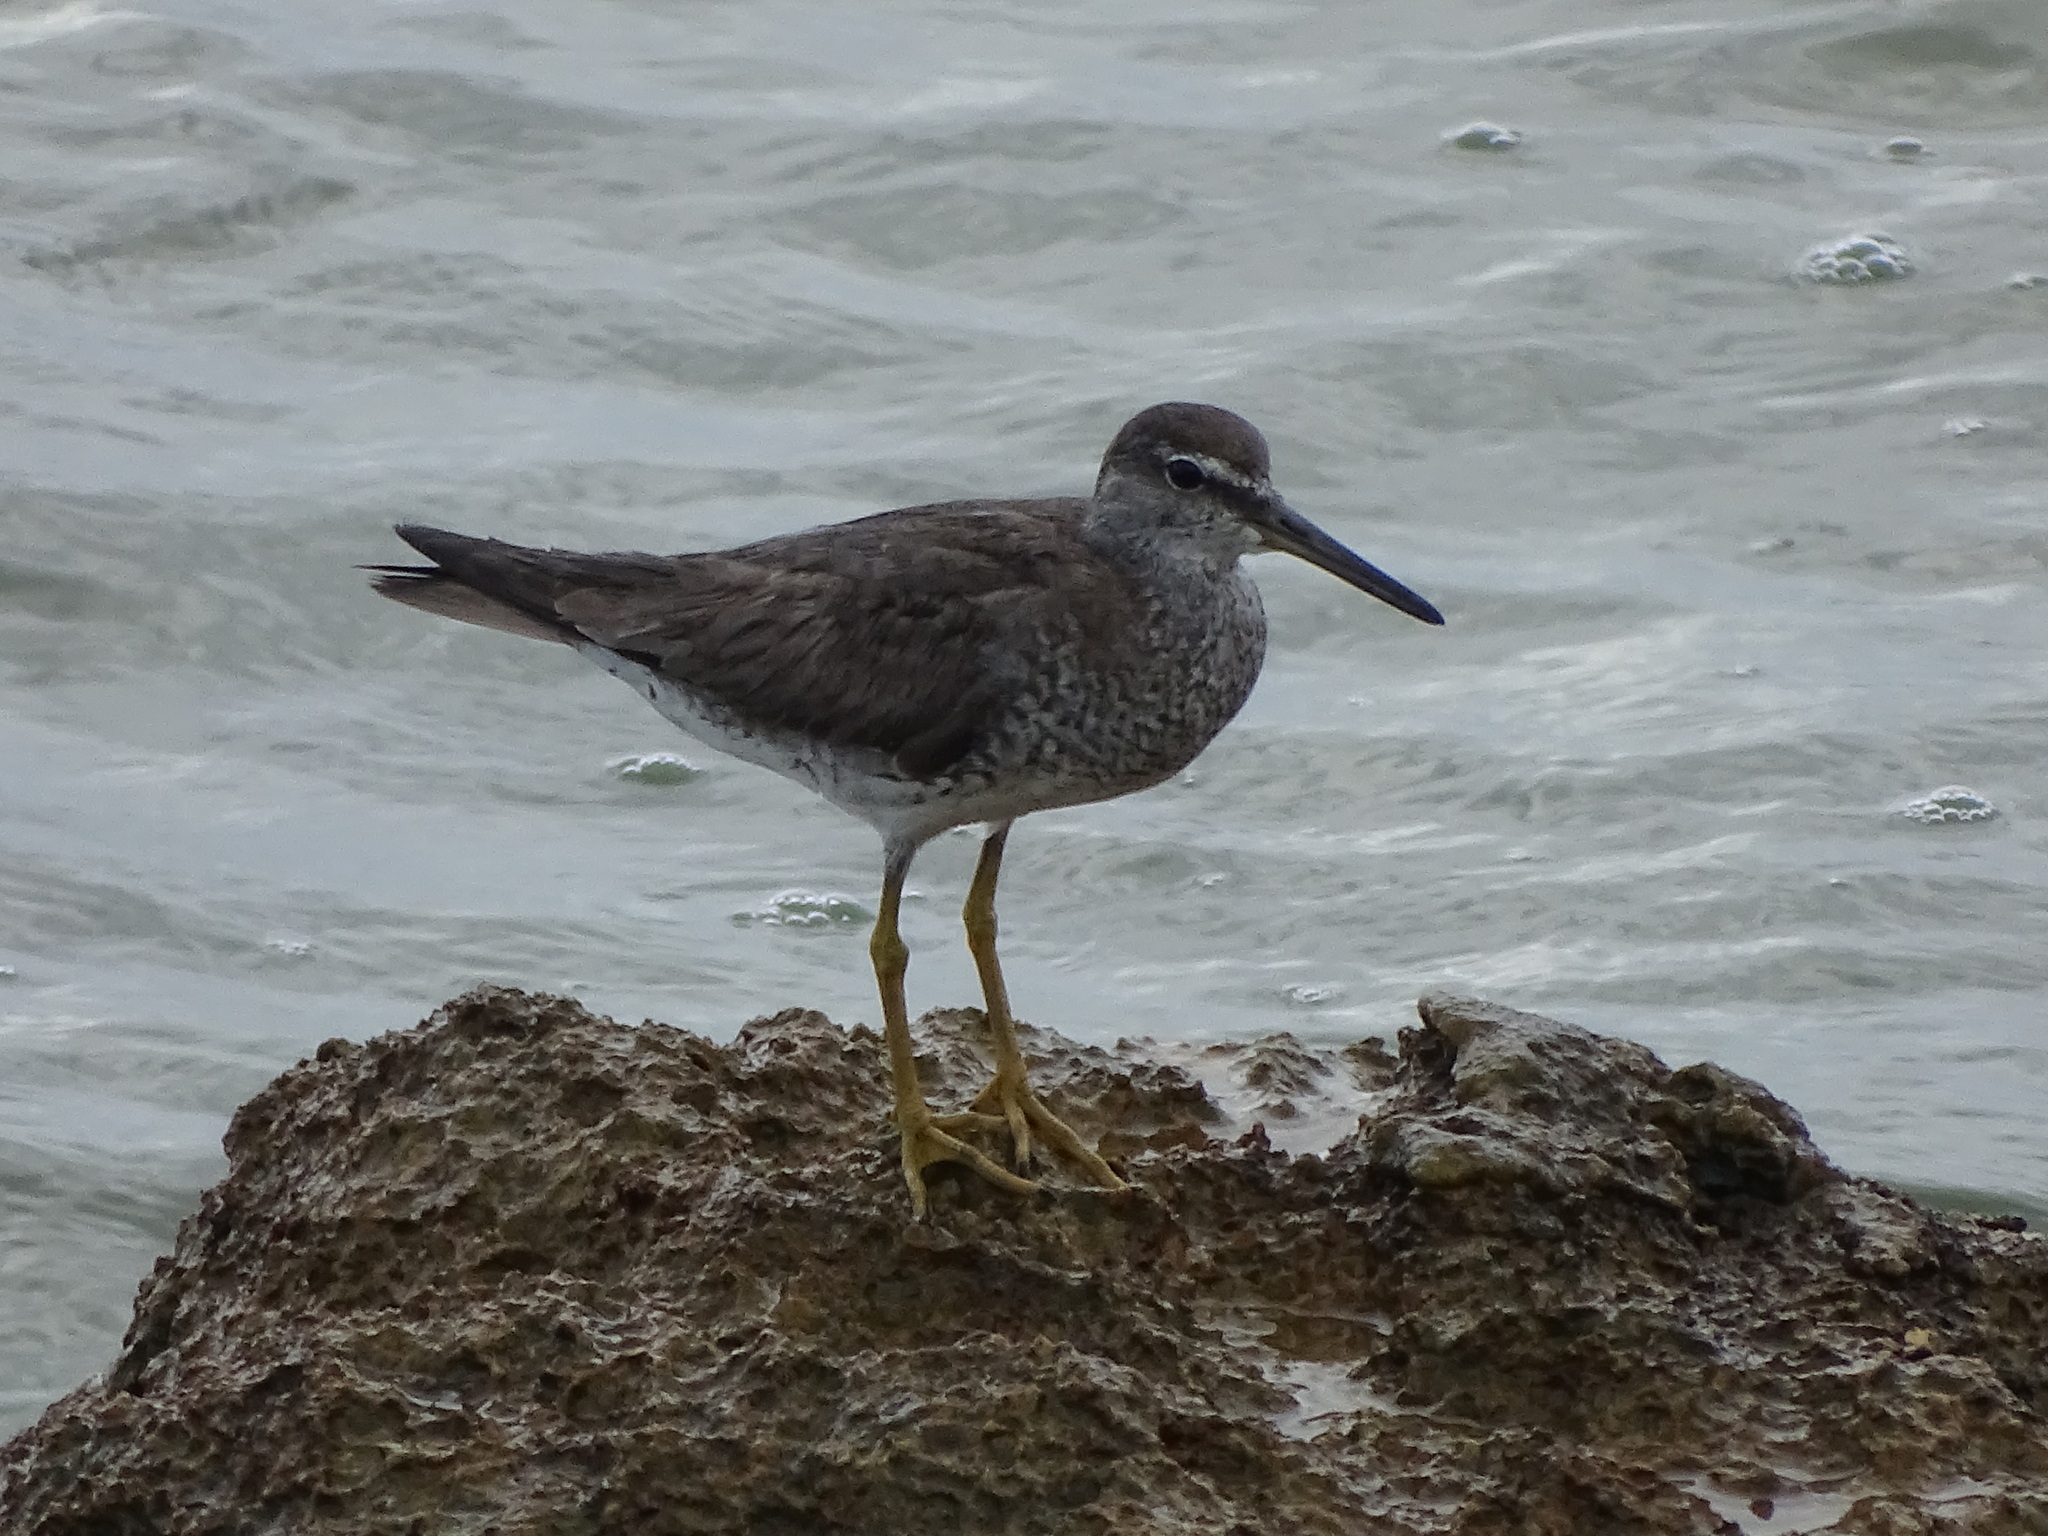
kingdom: Animalia
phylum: Chordata
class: Aves
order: Charadriiformes
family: Scolopacidae
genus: Tringa
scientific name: Tringa brevipes
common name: Grey-tailed tattler
